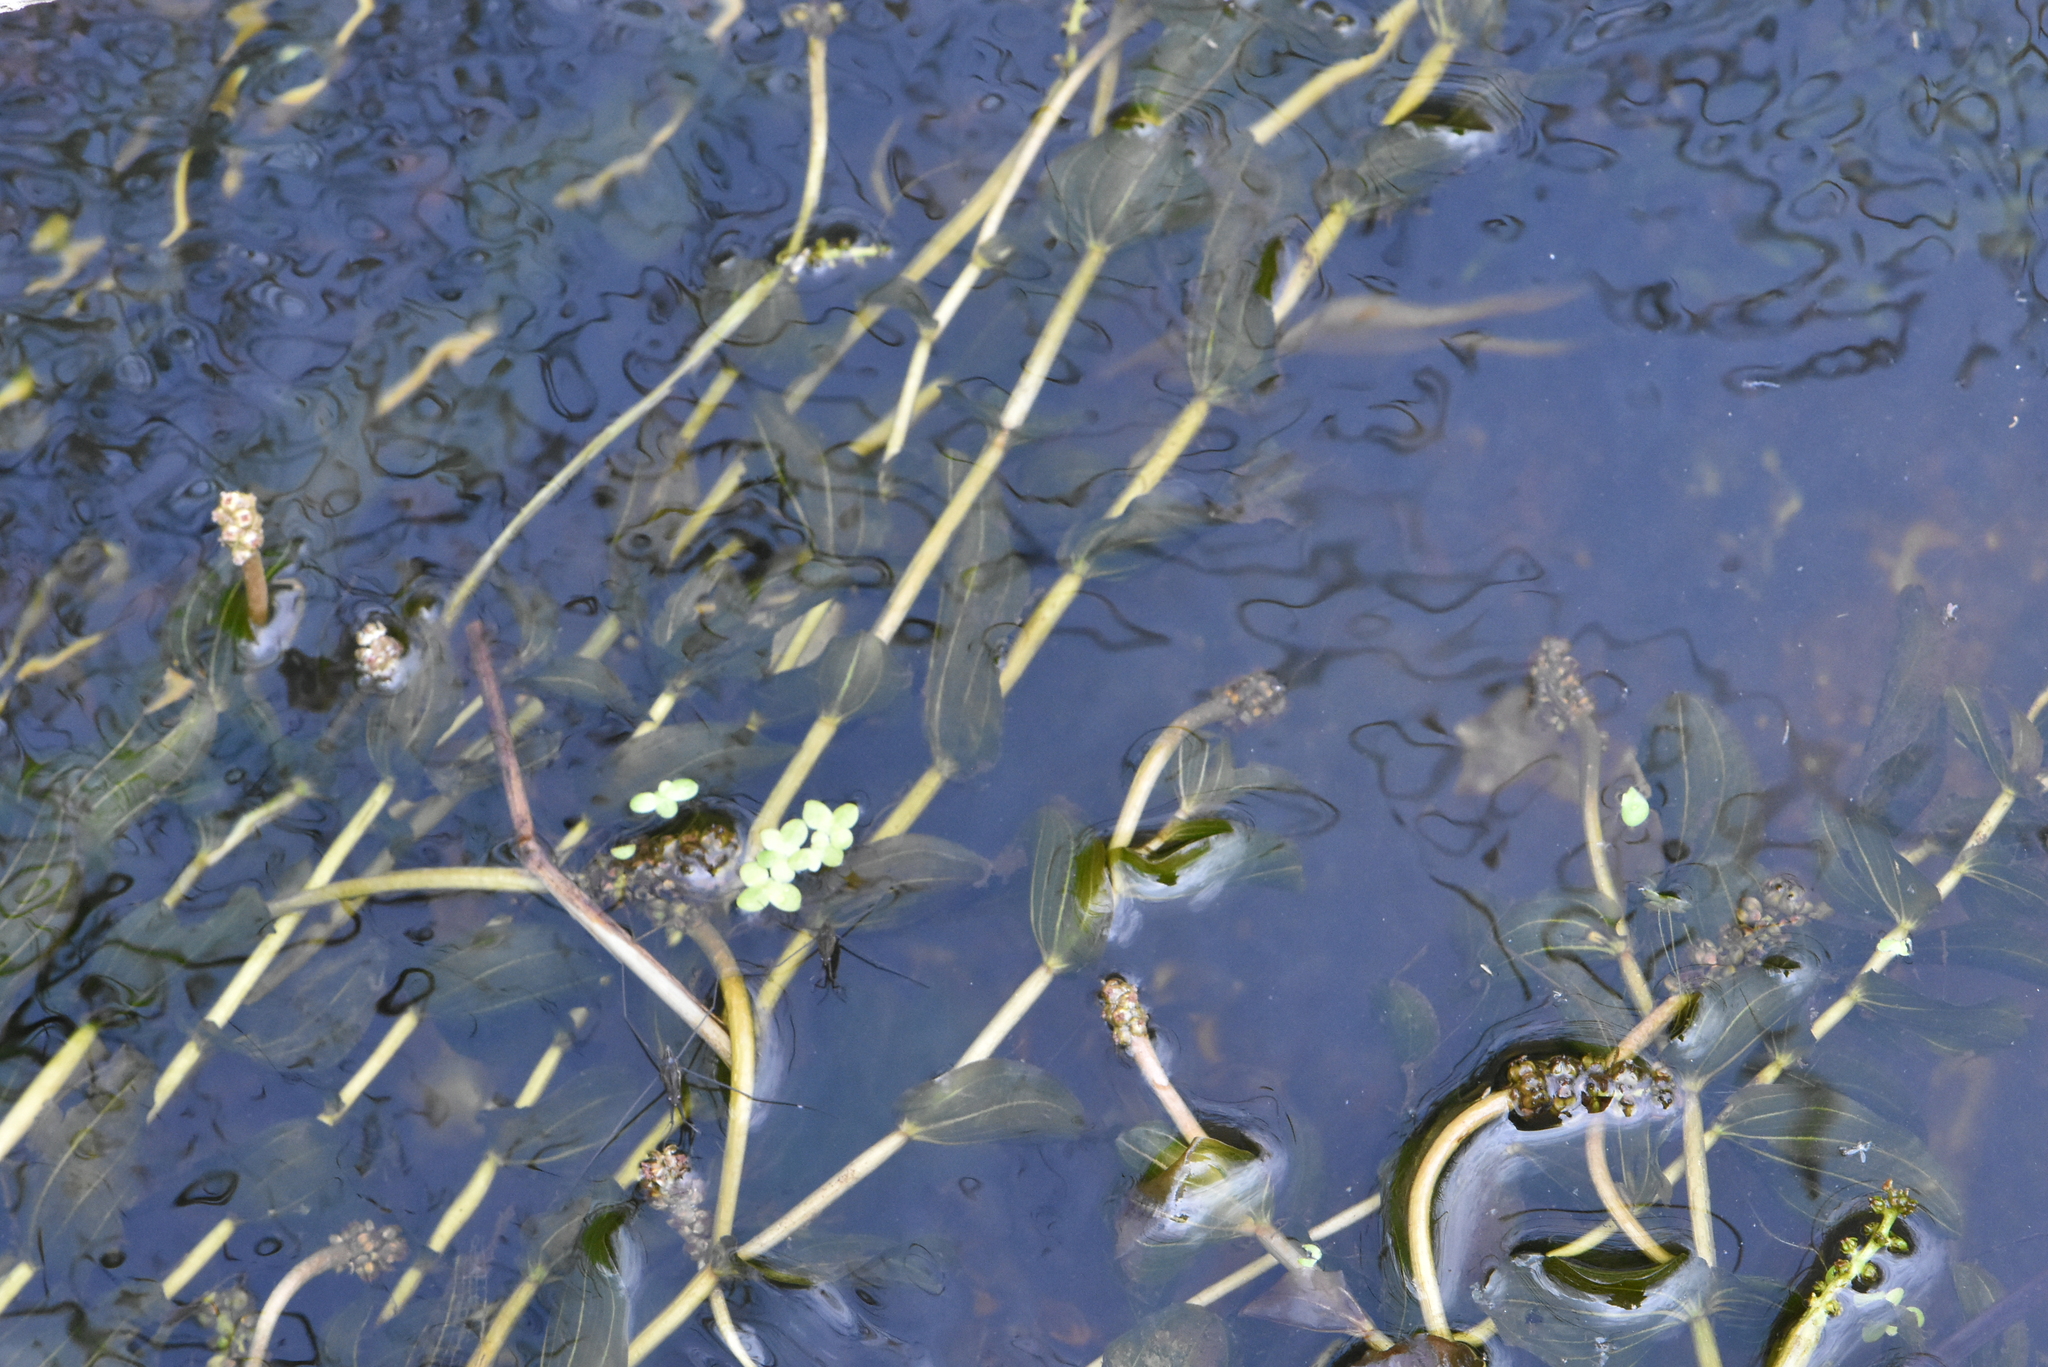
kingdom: Plantae
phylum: Tracheophyta
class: Liliopsida
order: Alismatales
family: Potamogetonaceae
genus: Potamogeton
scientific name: Potamogeton perfoliatus
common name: Perfoliate pondweed
